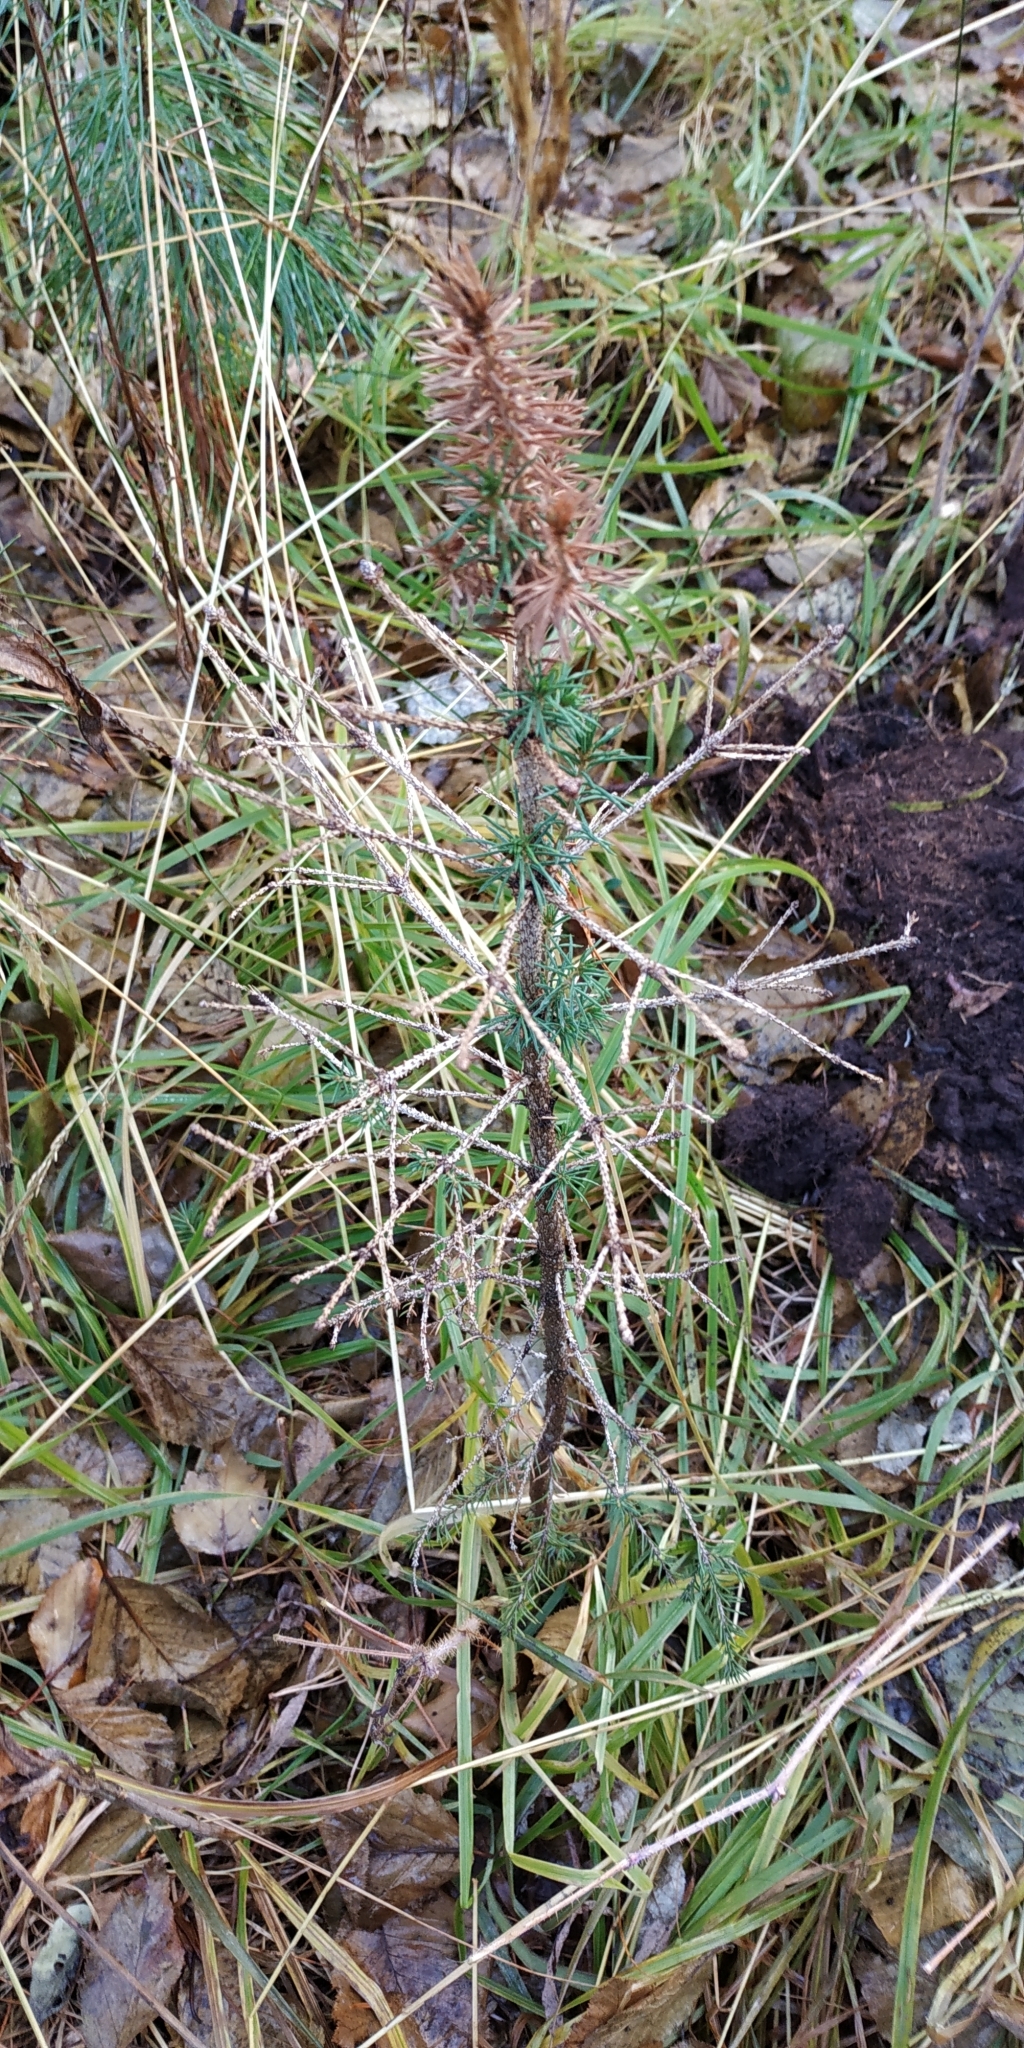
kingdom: Plantae
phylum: Tracheophyta
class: Pinopsida
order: Pinales
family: Pinaceae
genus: Larix
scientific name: Larix sibirica
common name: Siberian larch
